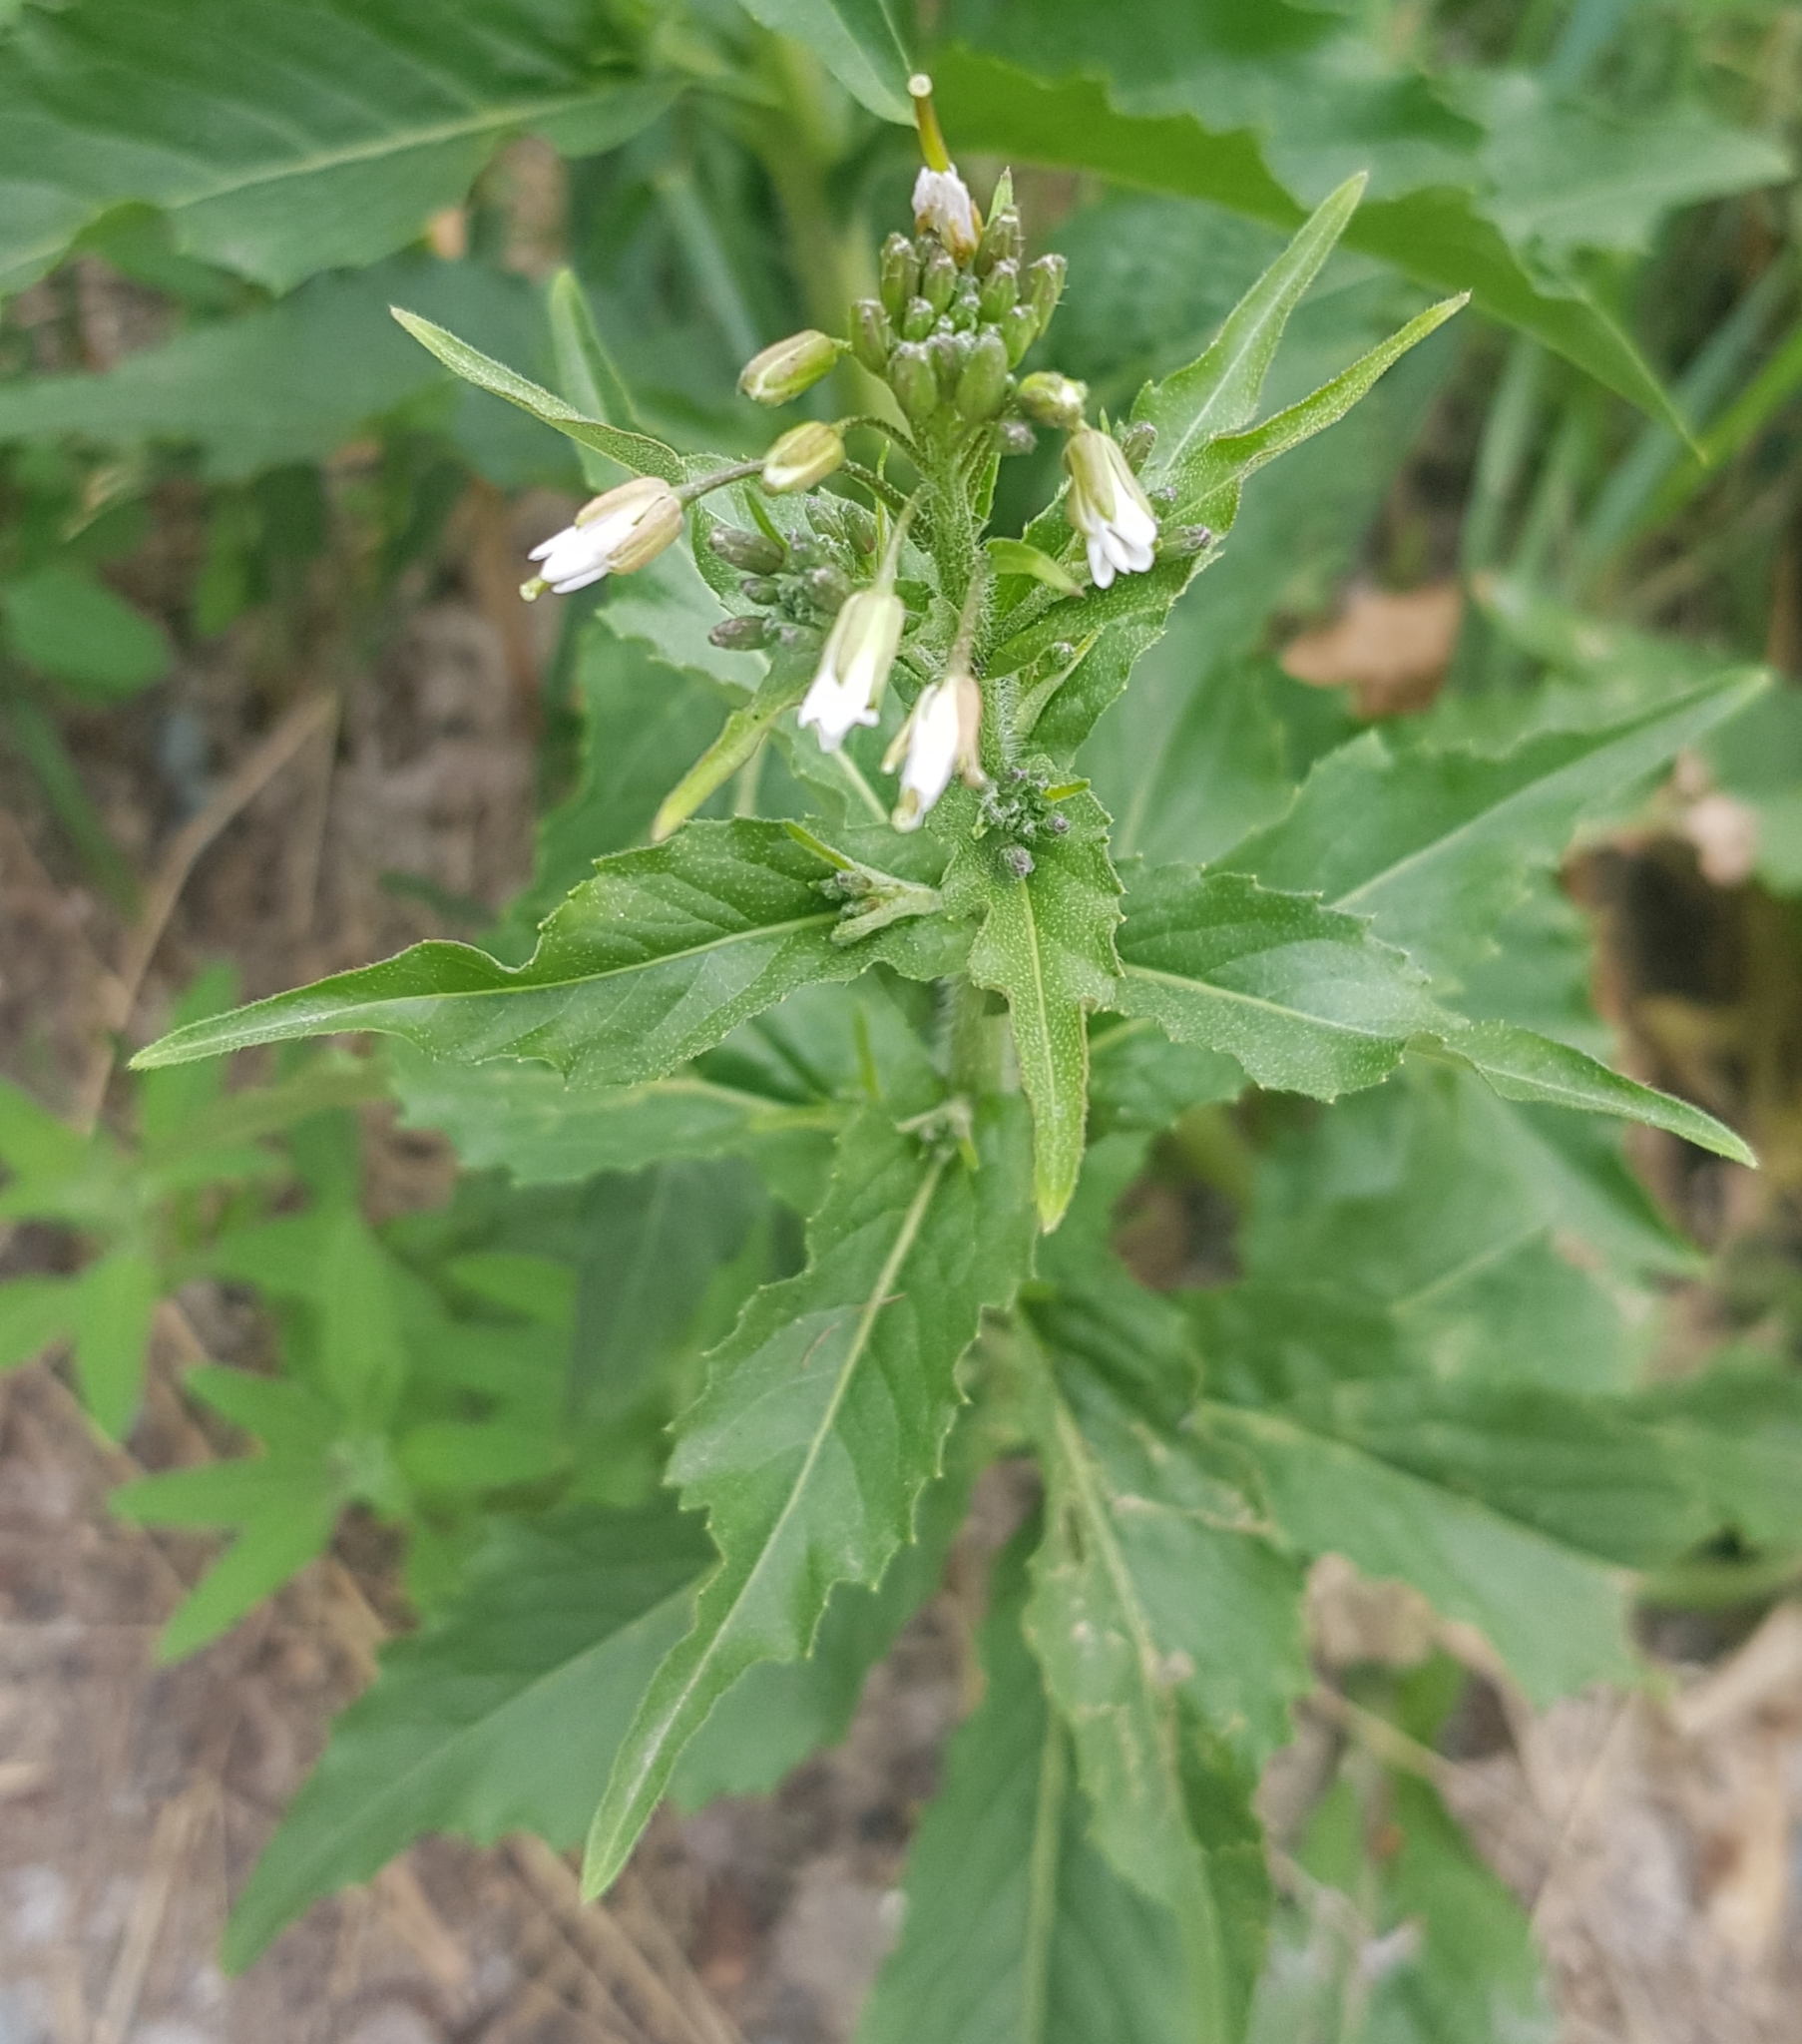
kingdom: Plantae
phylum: Tracheophyta
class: Magnoliopsida
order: Brassicales
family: Brassicaceae
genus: Catolobus
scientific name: Catolobus pendulus
